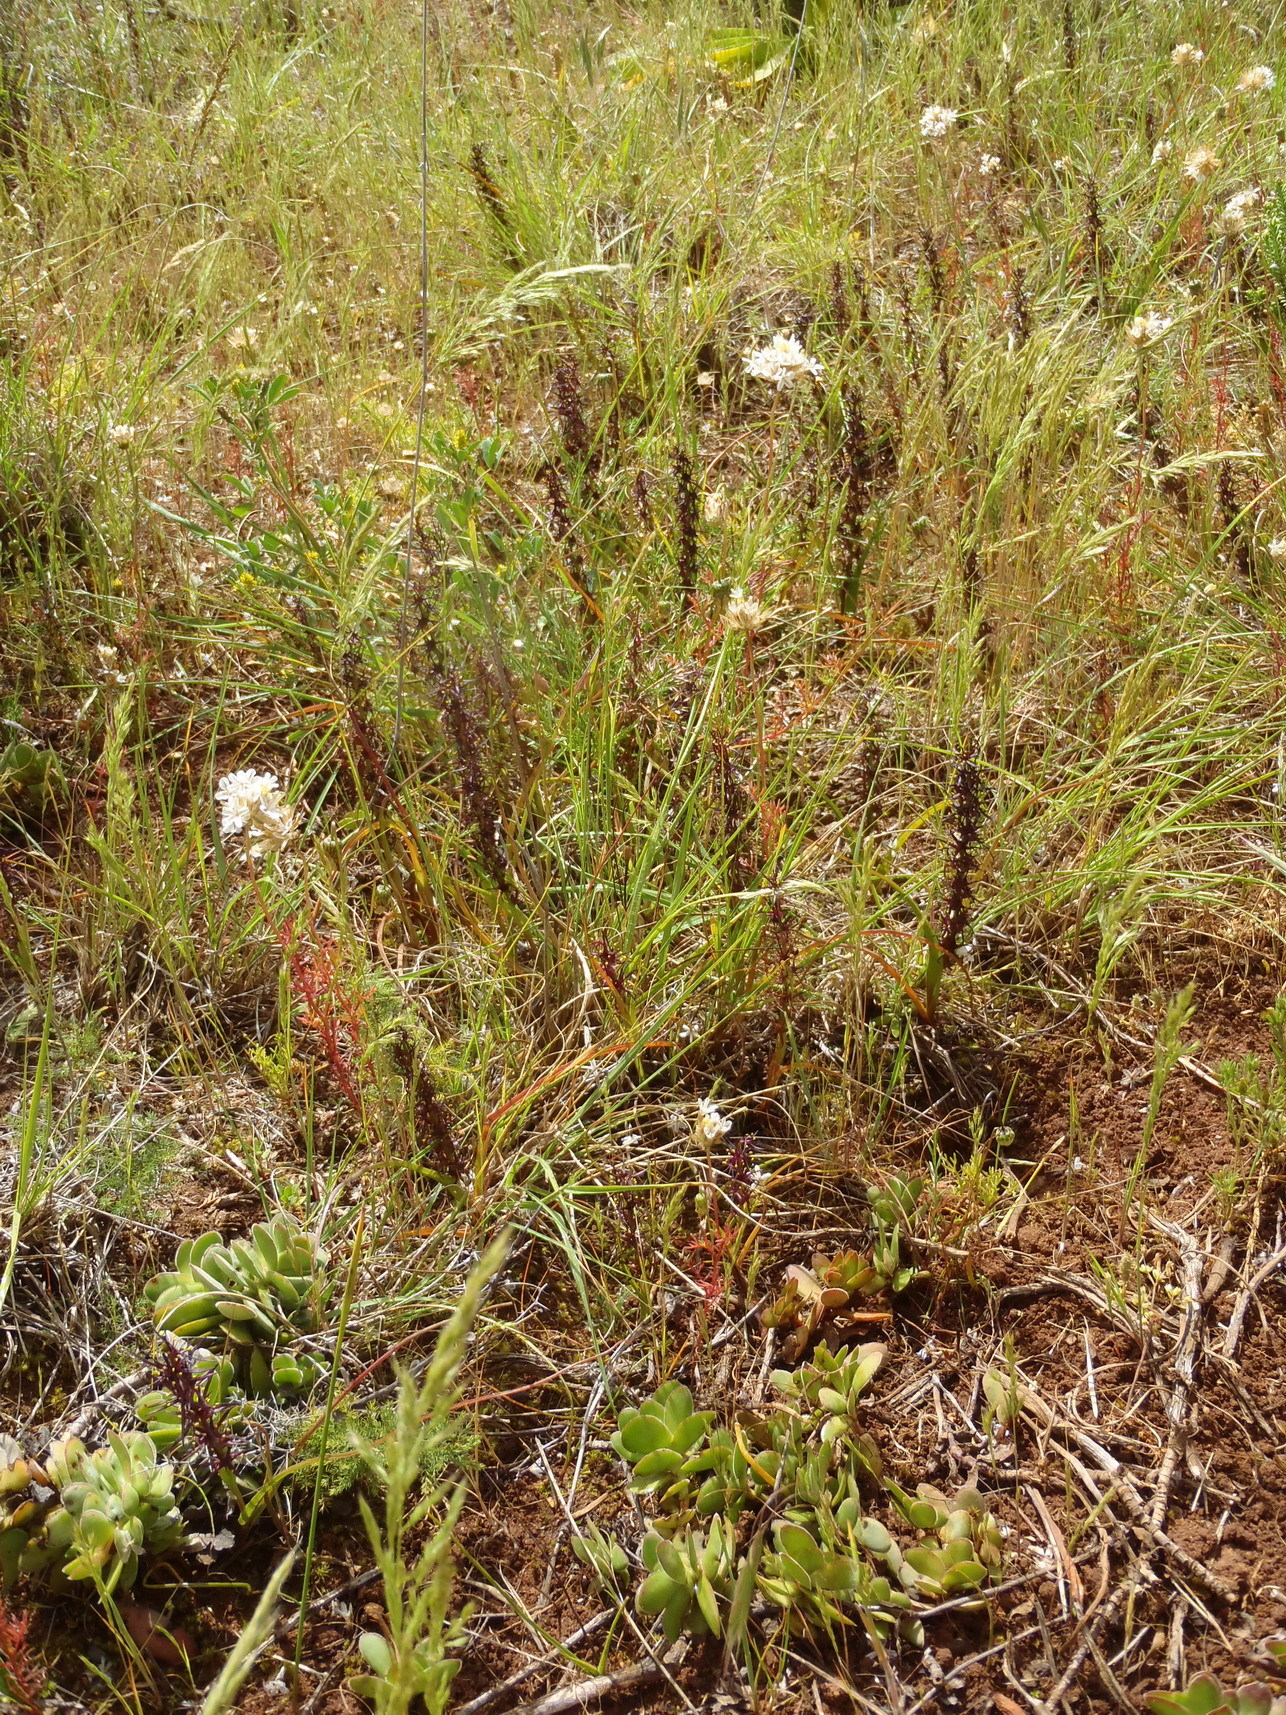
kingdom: Plantae
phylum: Tracheophyta
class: Liliopsida
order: Liliales
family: Colchicaceae
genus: Wurmbea
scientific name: Wurmbea marginata
